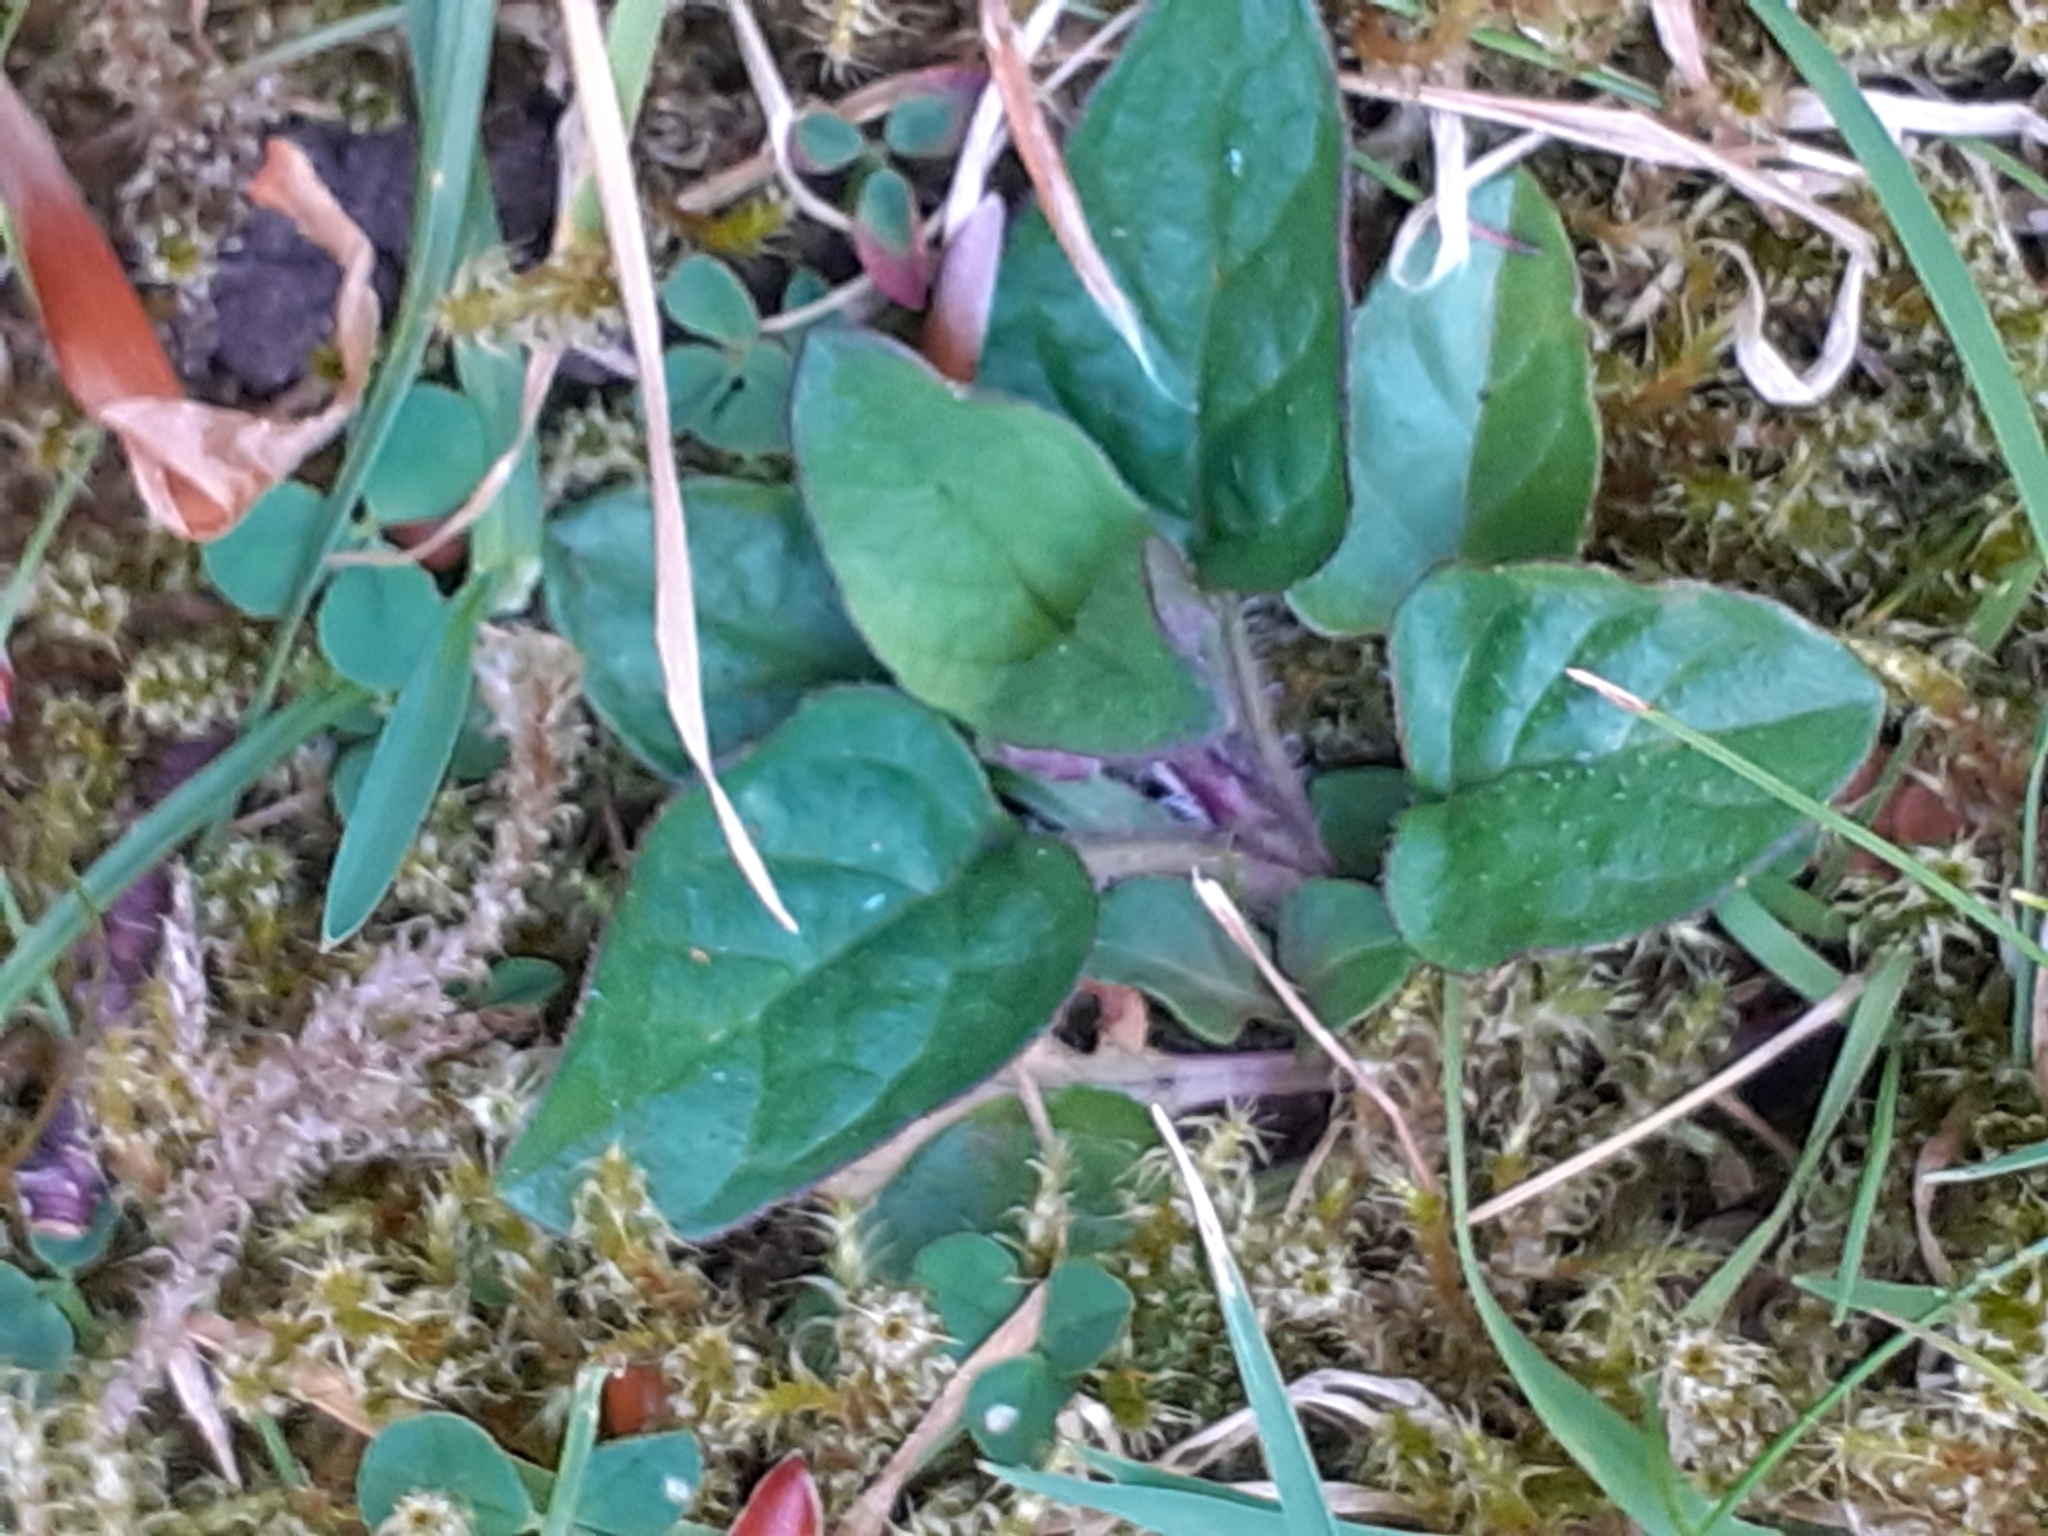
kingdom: Plantae
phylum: Tracheophyta
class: Magnoliopsida
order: Lamiales
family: Lamiaceae
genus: Prunella
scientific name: Prunella vulgaris
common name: Heal-all
